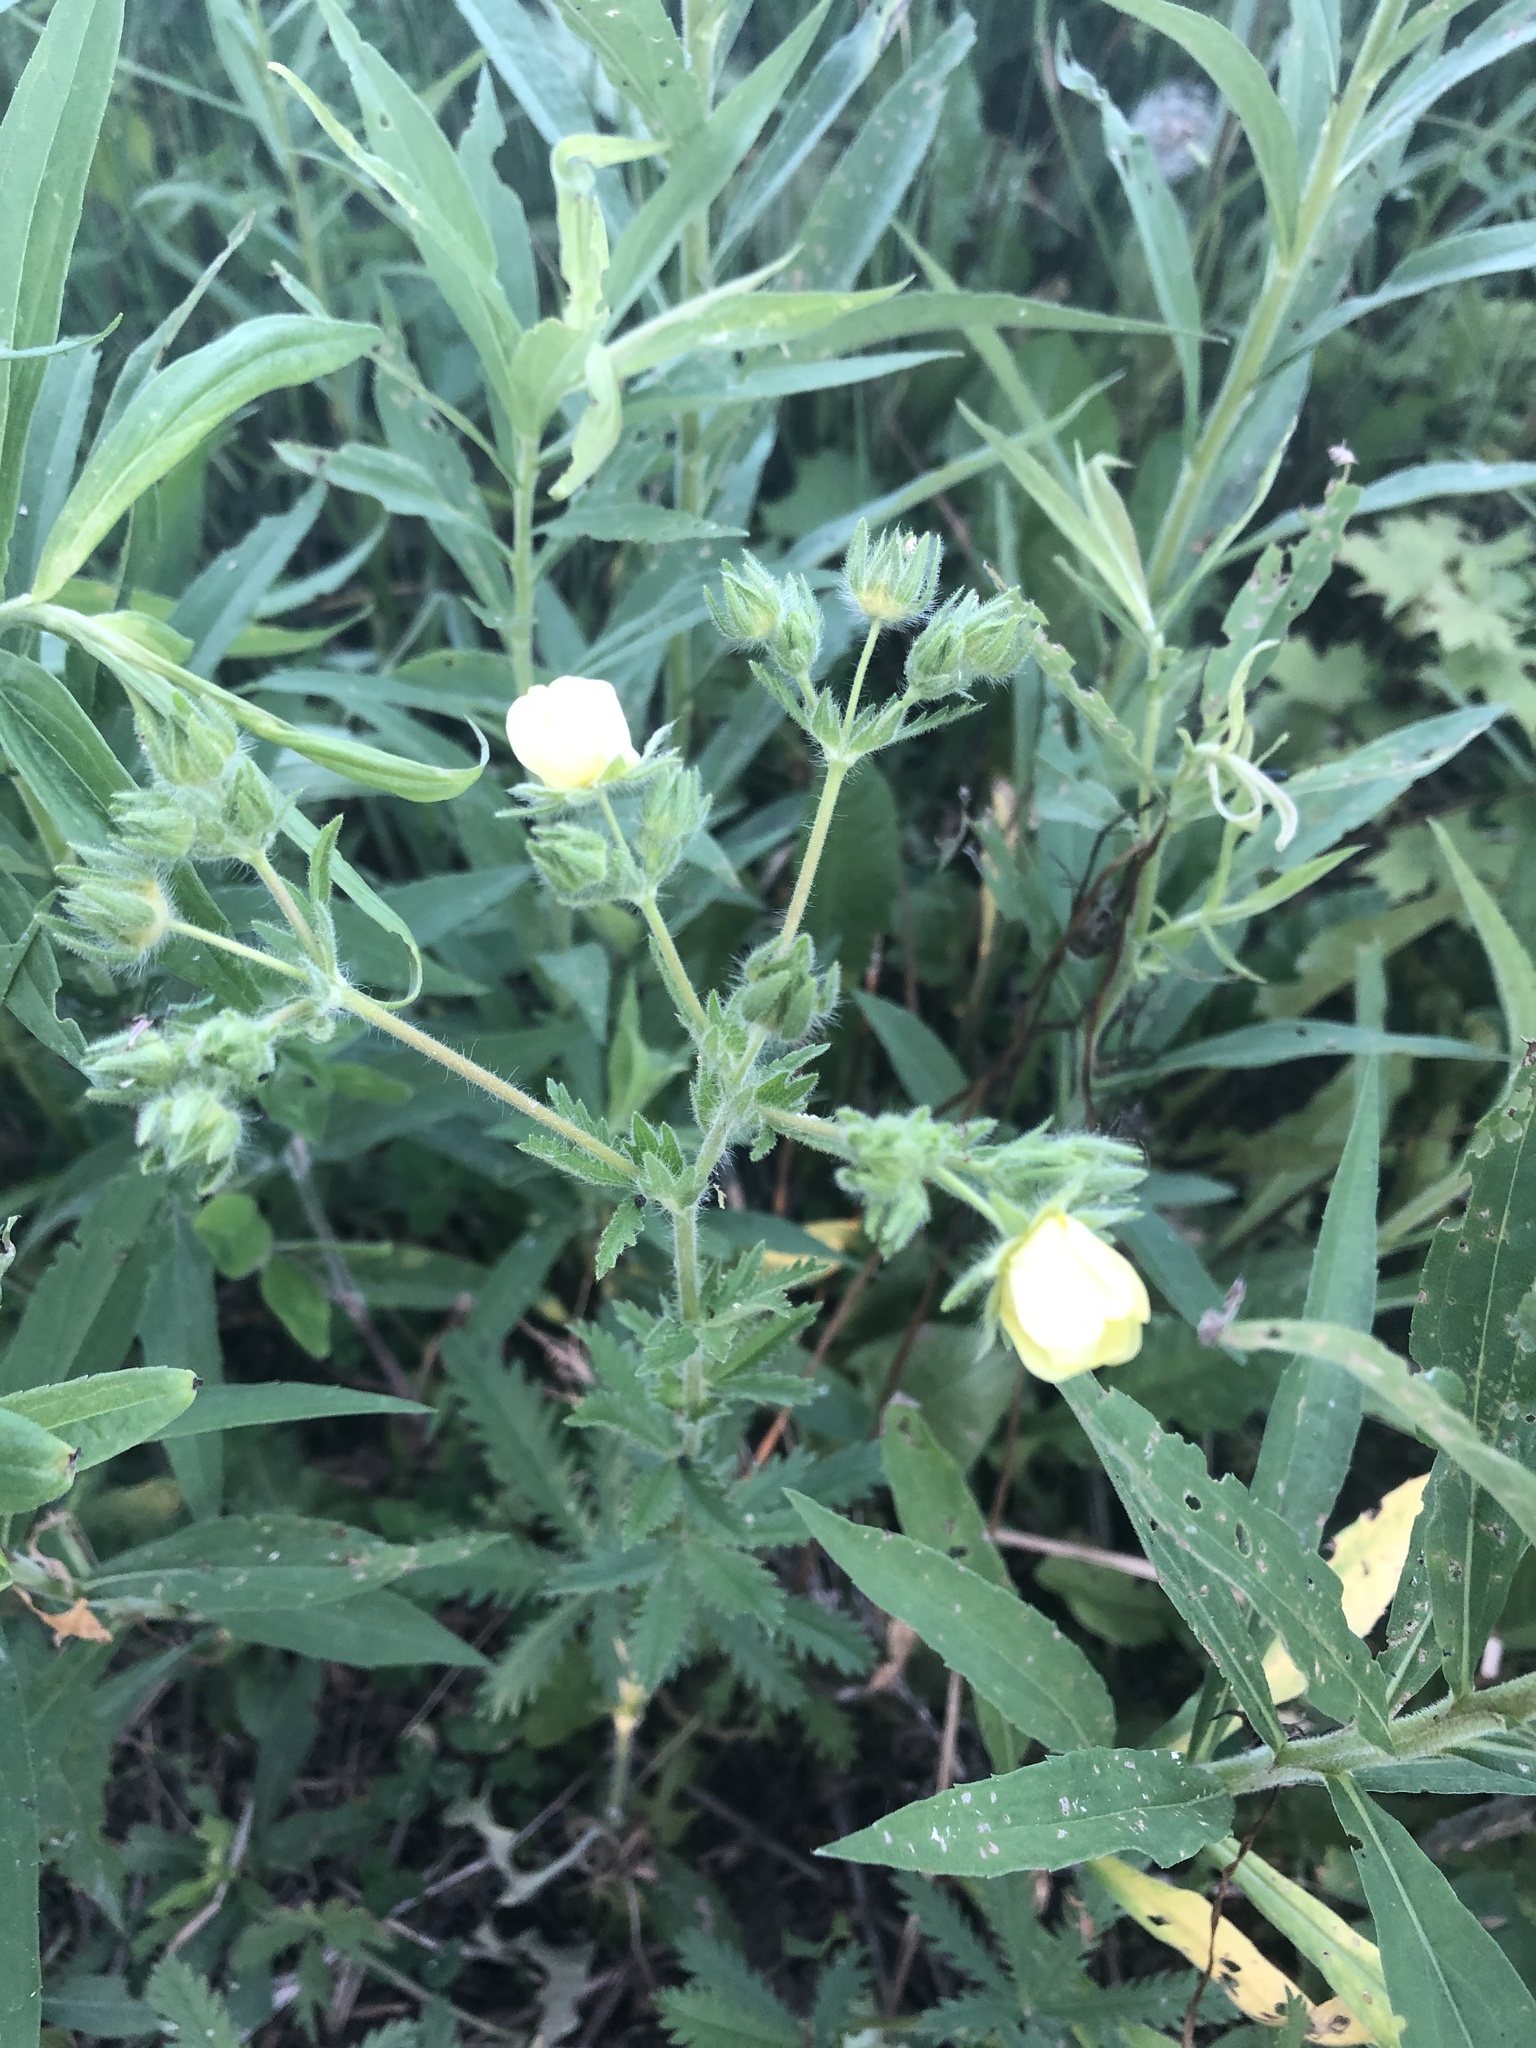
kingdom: Plantae
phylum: Tracheophyta
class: Magnoliopsida
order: Rosales
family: Rosaceae
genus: Potentilla
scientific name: Potentilla recta
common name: Sulphur cinquefoil
